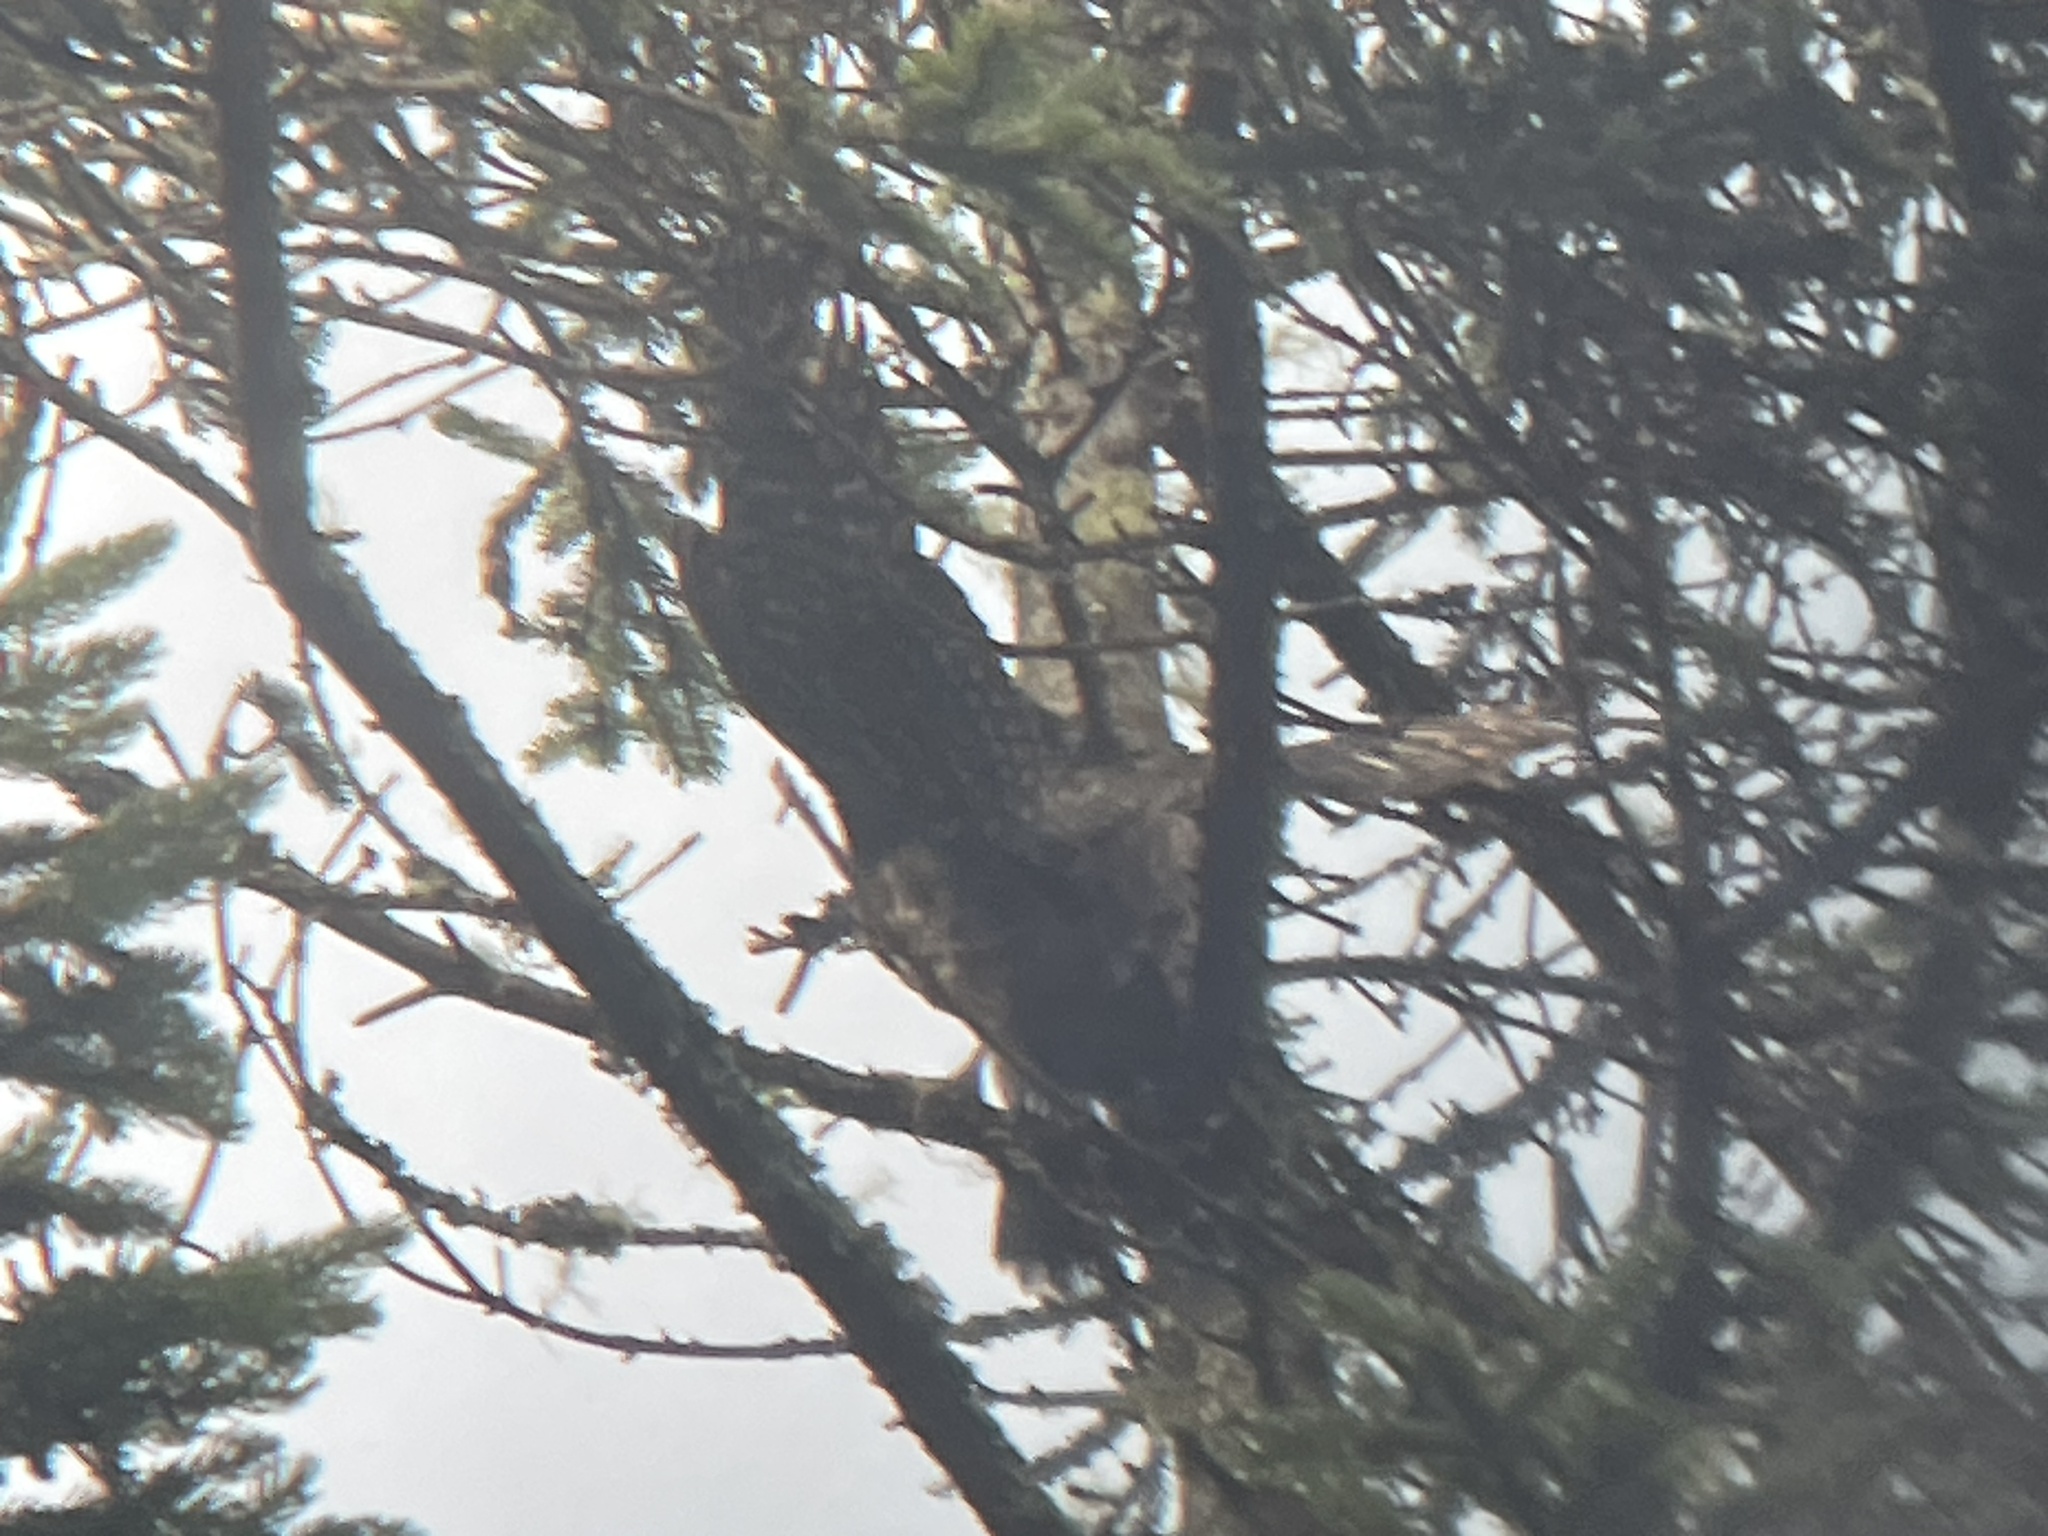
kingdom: Animalia
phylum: Chordata
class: Aves
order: Falconiformes
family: Falconidae
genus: Falco
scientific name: Falco columbarius
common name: Merlin
